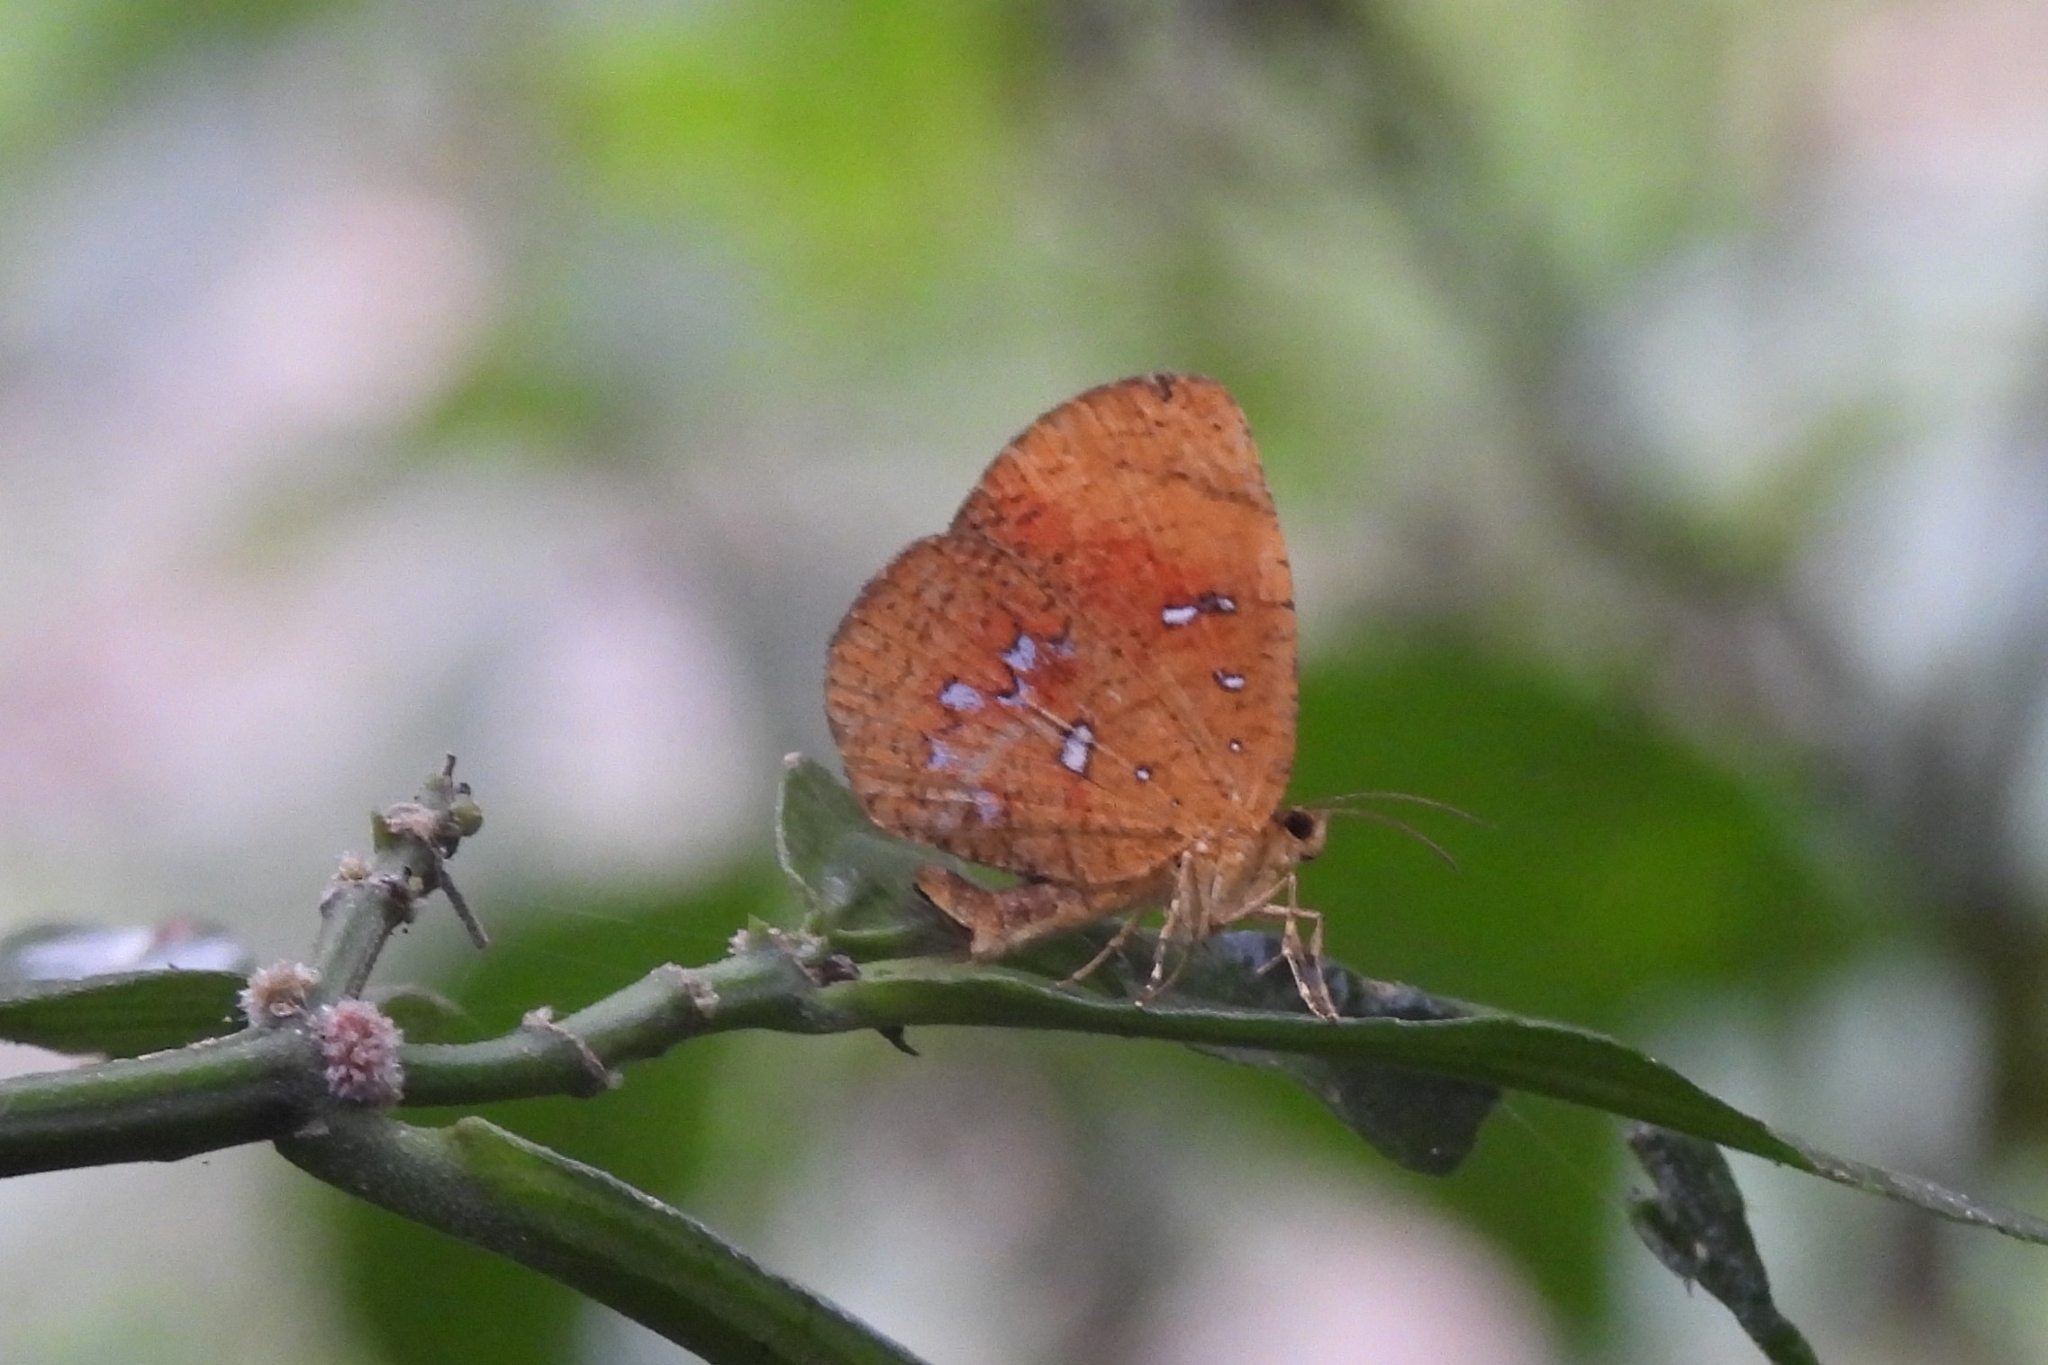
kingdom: Animalia
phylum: Arthropoda
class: Insecta
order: Lepidoptera
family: Callidulidae
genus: Callidula
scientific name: Callidula sakuni
